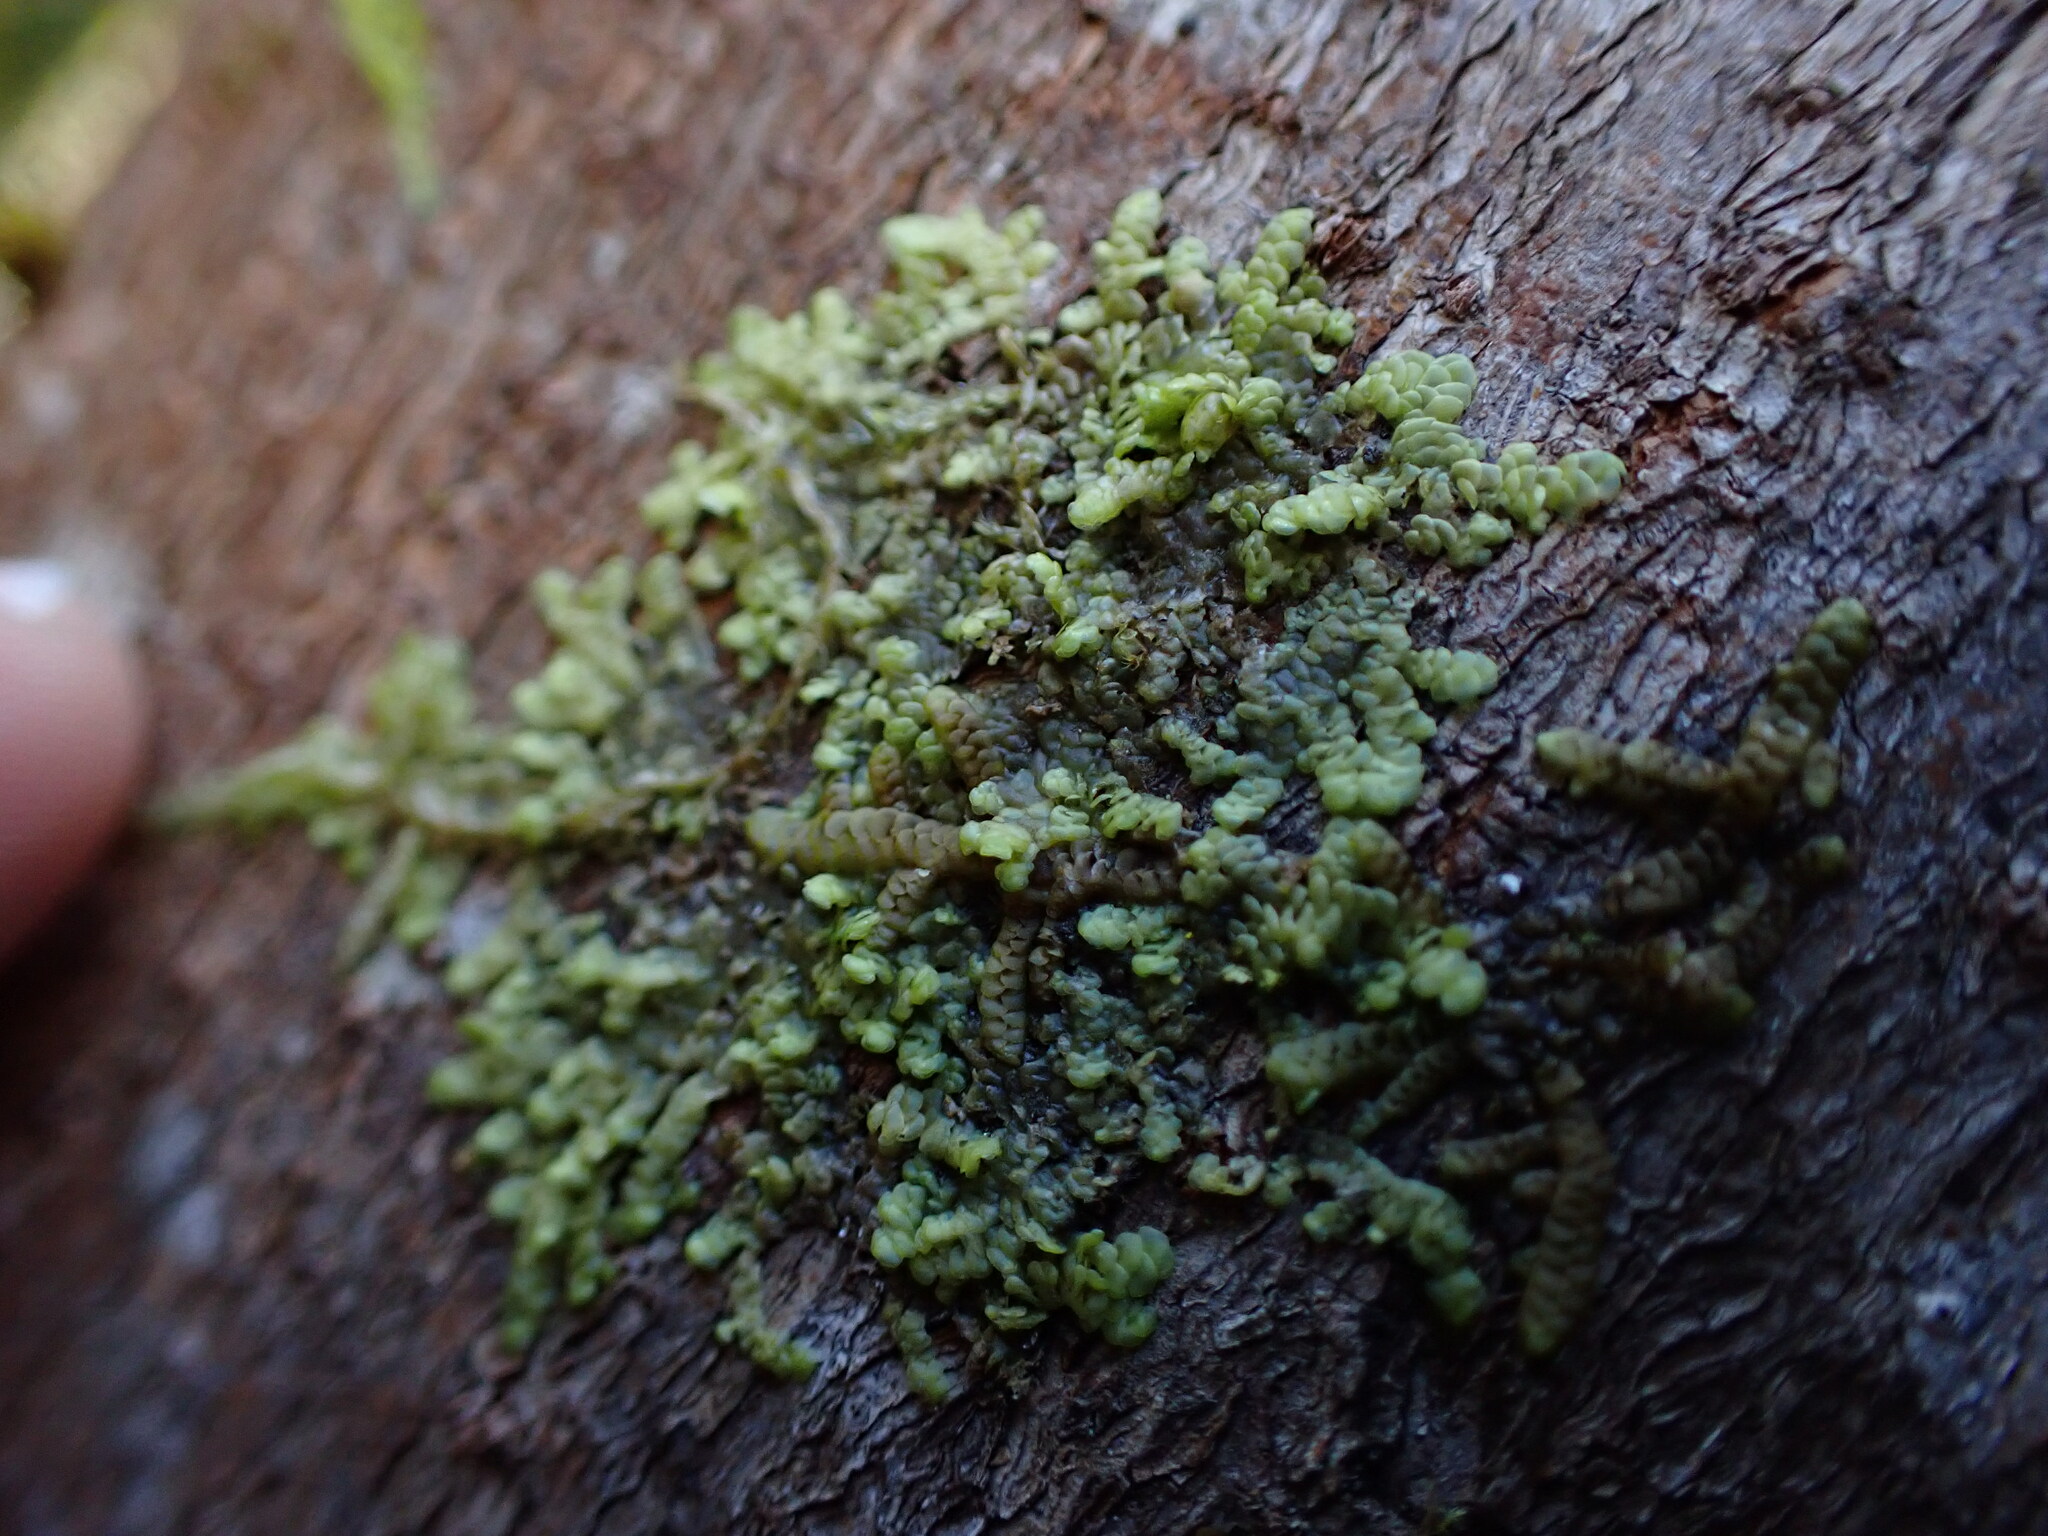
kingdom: Plantae
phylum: Marchantiophyta
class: Jungermanniopsida
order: Porellales
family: Radulaceae
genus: Radula
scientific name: Radula complanata
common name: Flat-leaved scalewort
